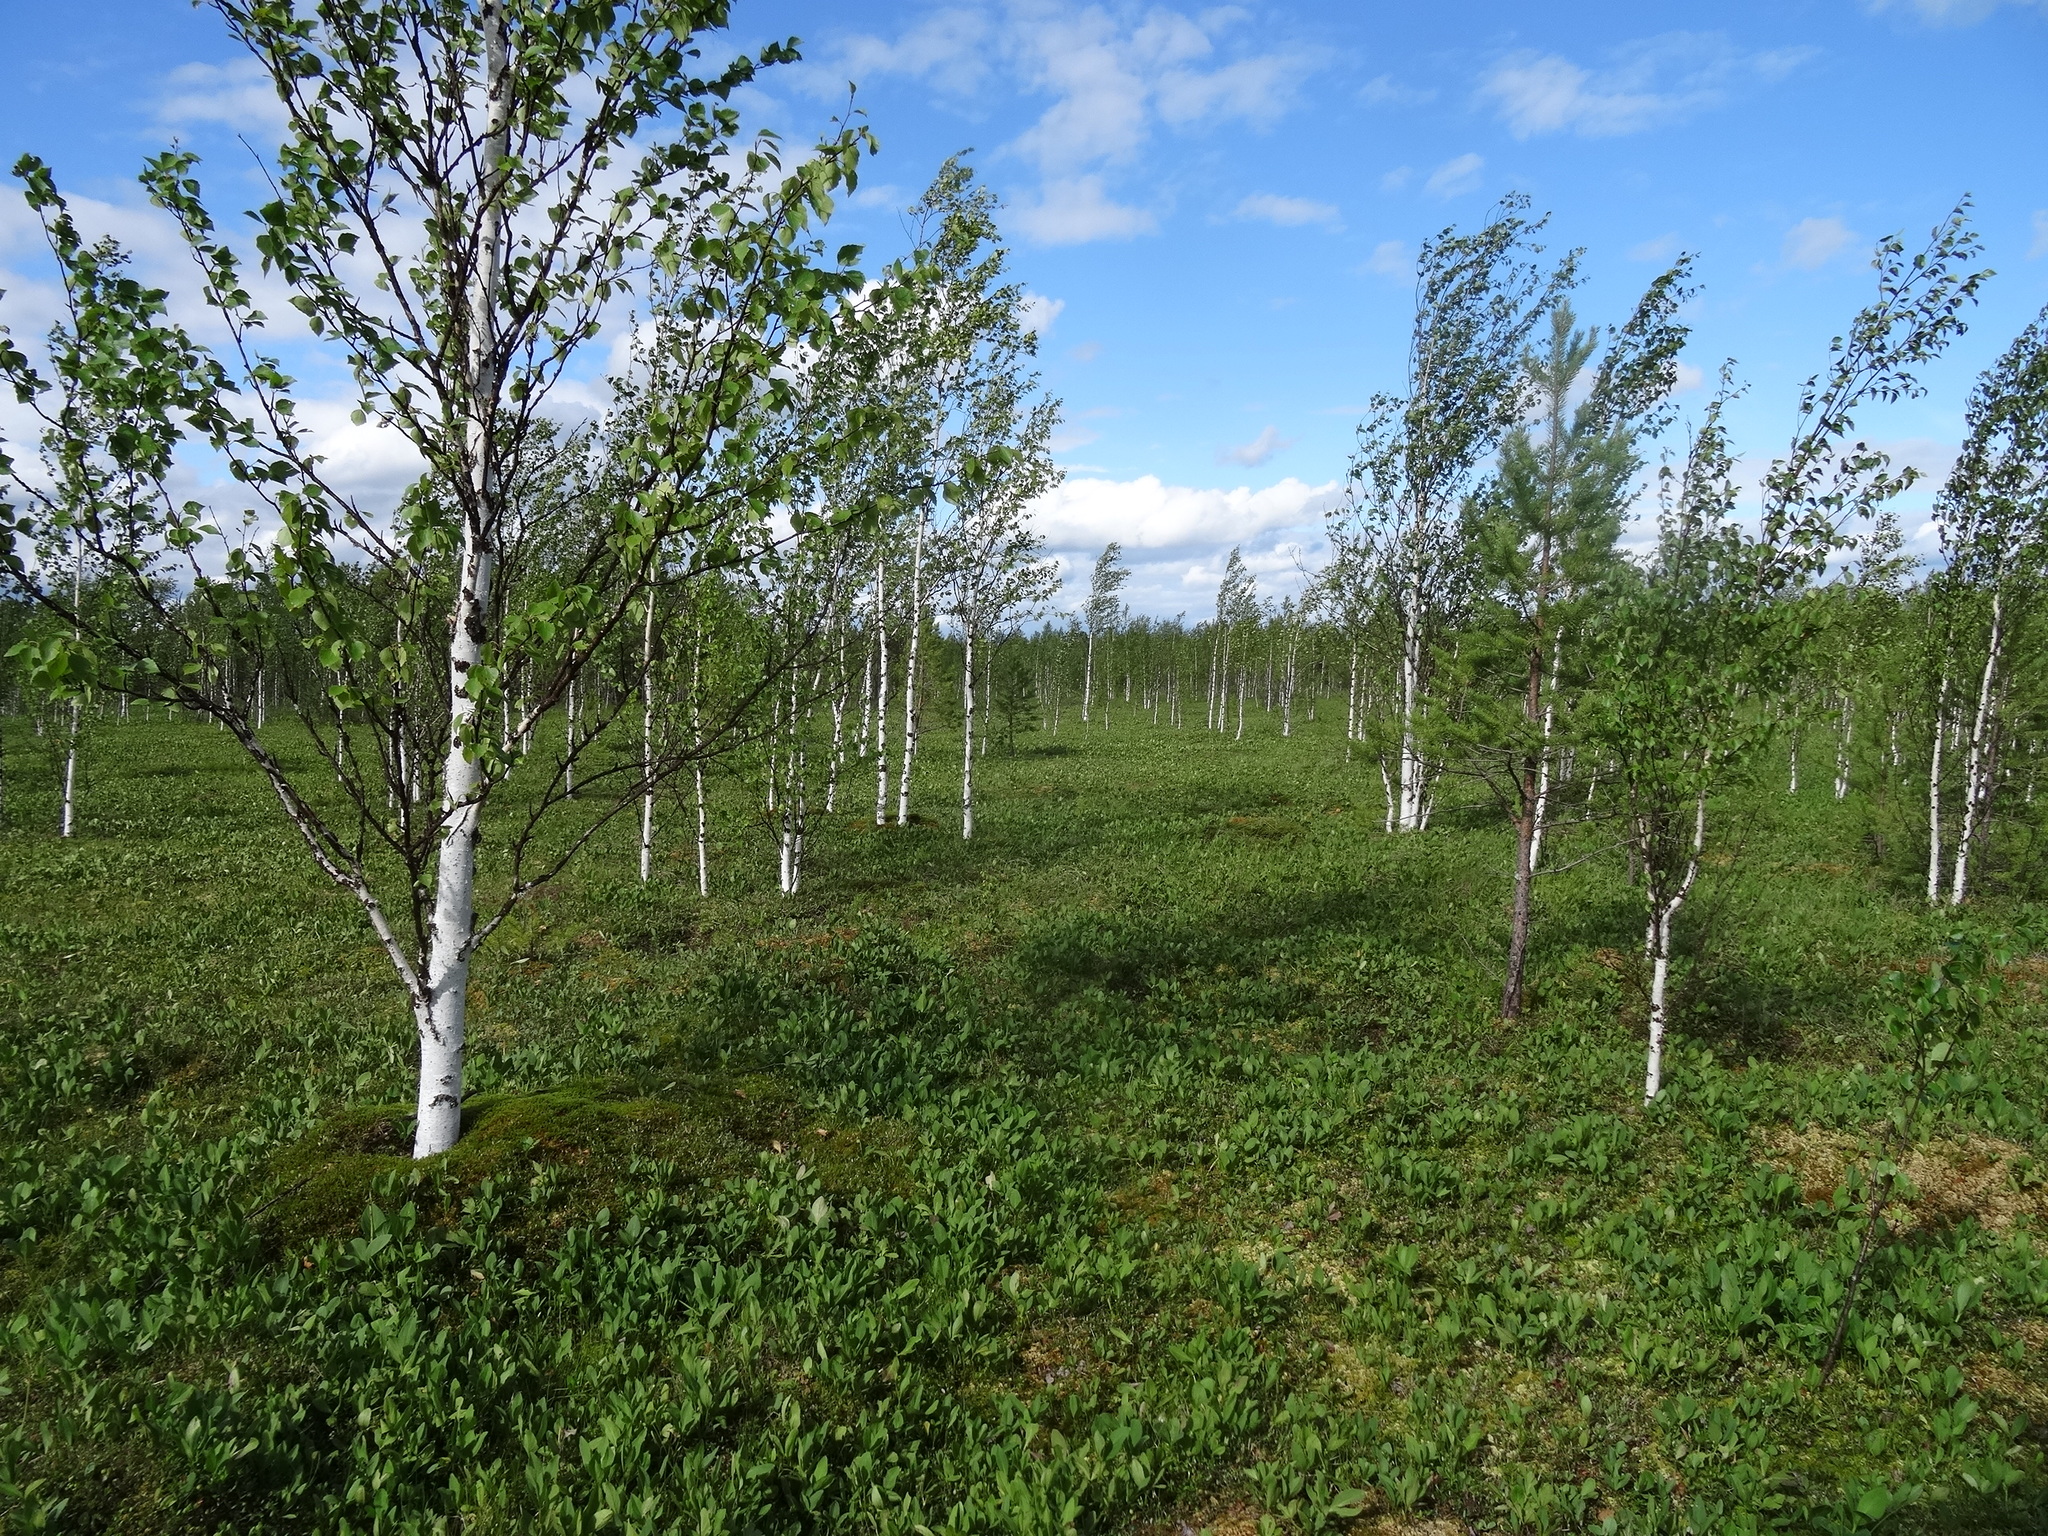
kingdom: Plantae
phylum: Tracheophyta
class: Magnoliopsida
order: Fagales
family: Betulaceae
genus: Betula
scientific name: Betula pubescens
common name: Downy birch
